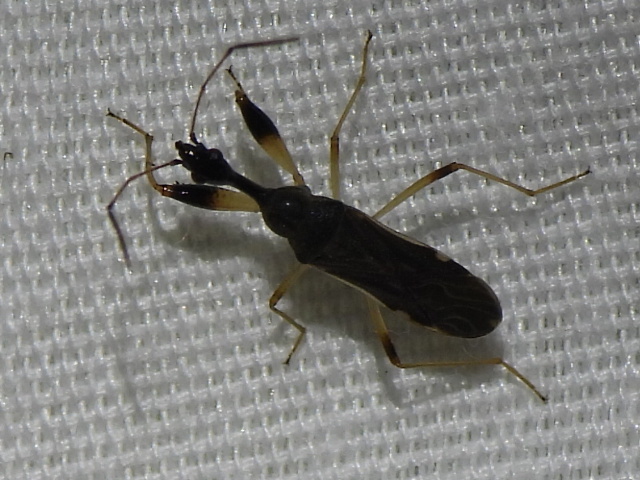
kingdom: Animalia
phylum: Arthropoda
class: Insecta
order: Hemiptera
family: Rhyparochromidae
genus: Myodocha
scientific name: Myodocha serripes
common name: Long-necked seed bug
